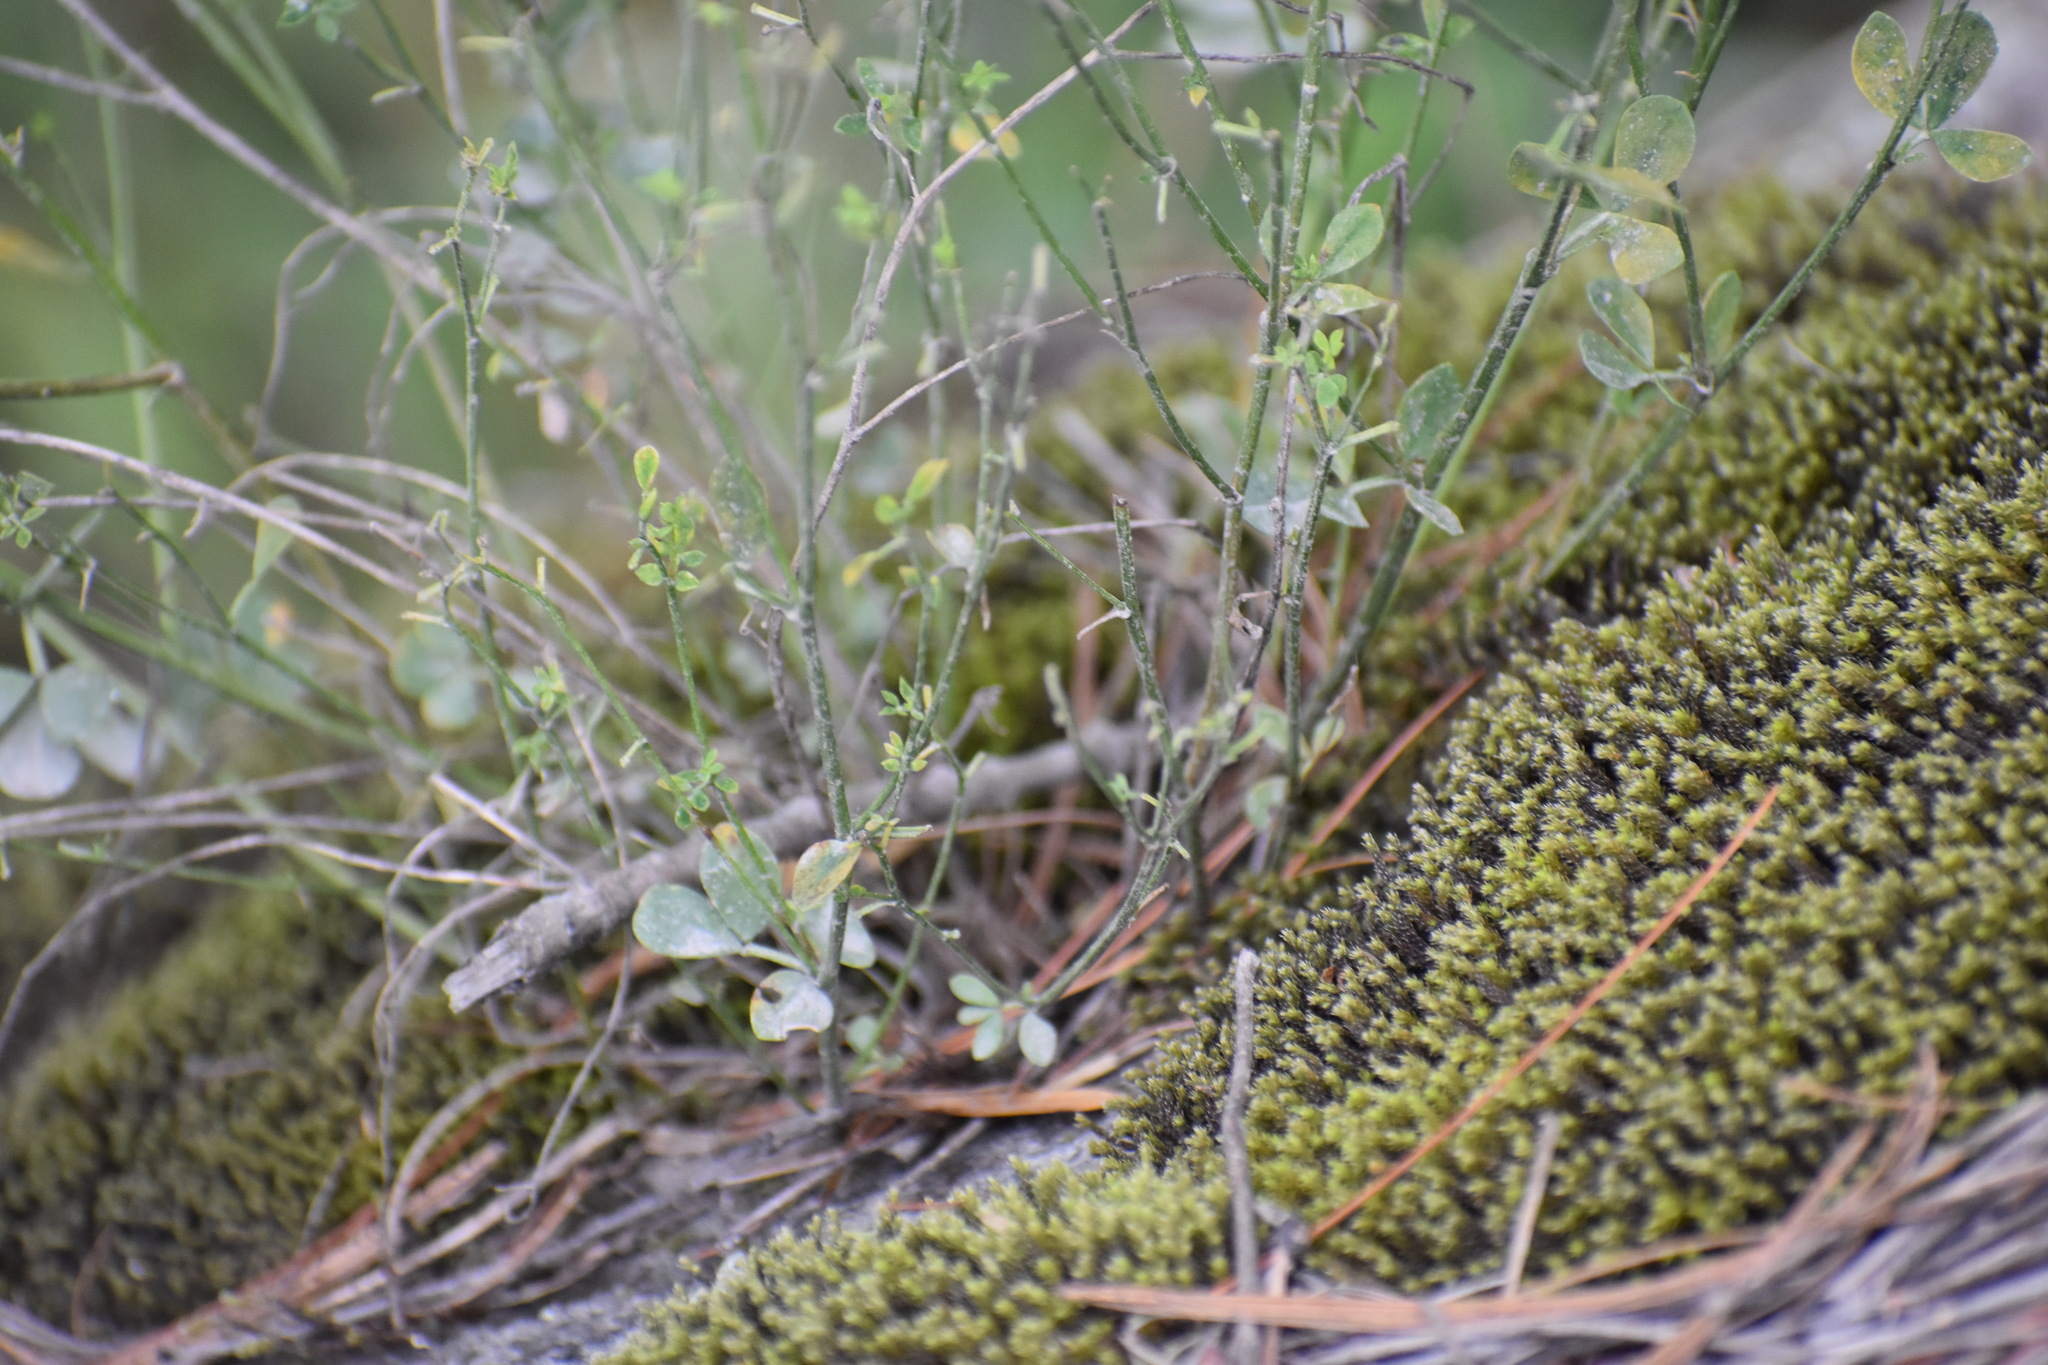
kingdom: Plantae
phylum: Tracheophyta
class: Magnoliopsida
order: Fabales
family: Fabaceae
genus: Lotus
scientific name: Lotus corniculatus
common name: Common bird's-foot-trefoil
